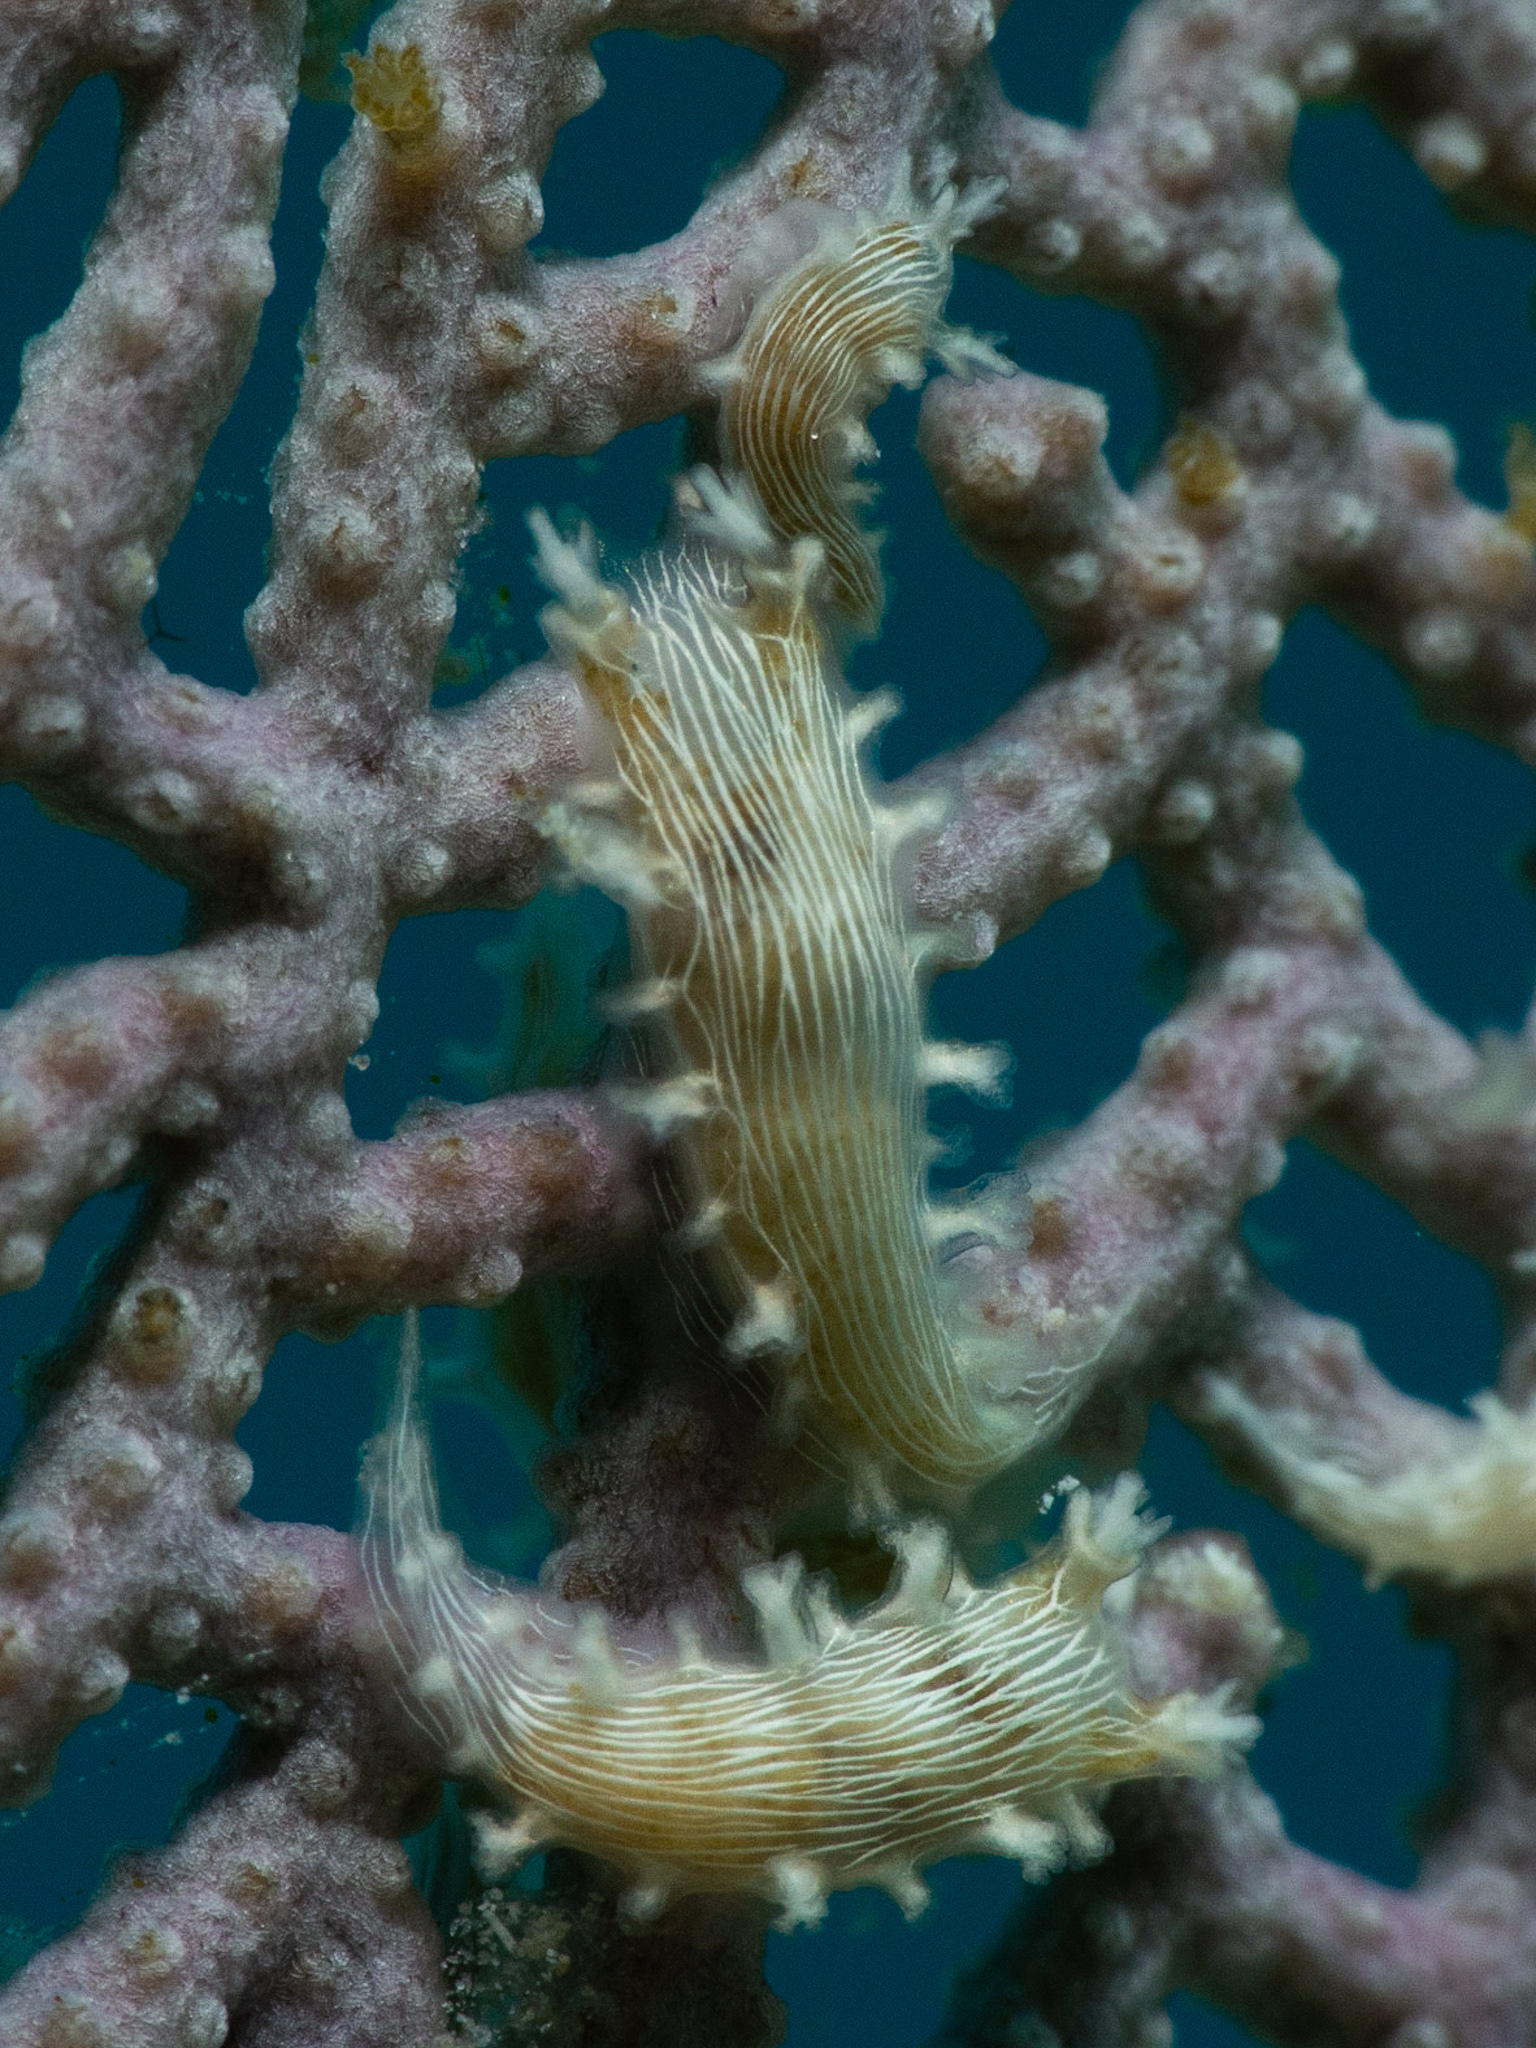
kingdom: Animalia
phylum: Mollusca
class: Gastropoda
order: Nudibranchia
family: Tritoniidae
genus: Tritonicula
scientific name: Tritonicula hamnerorum
